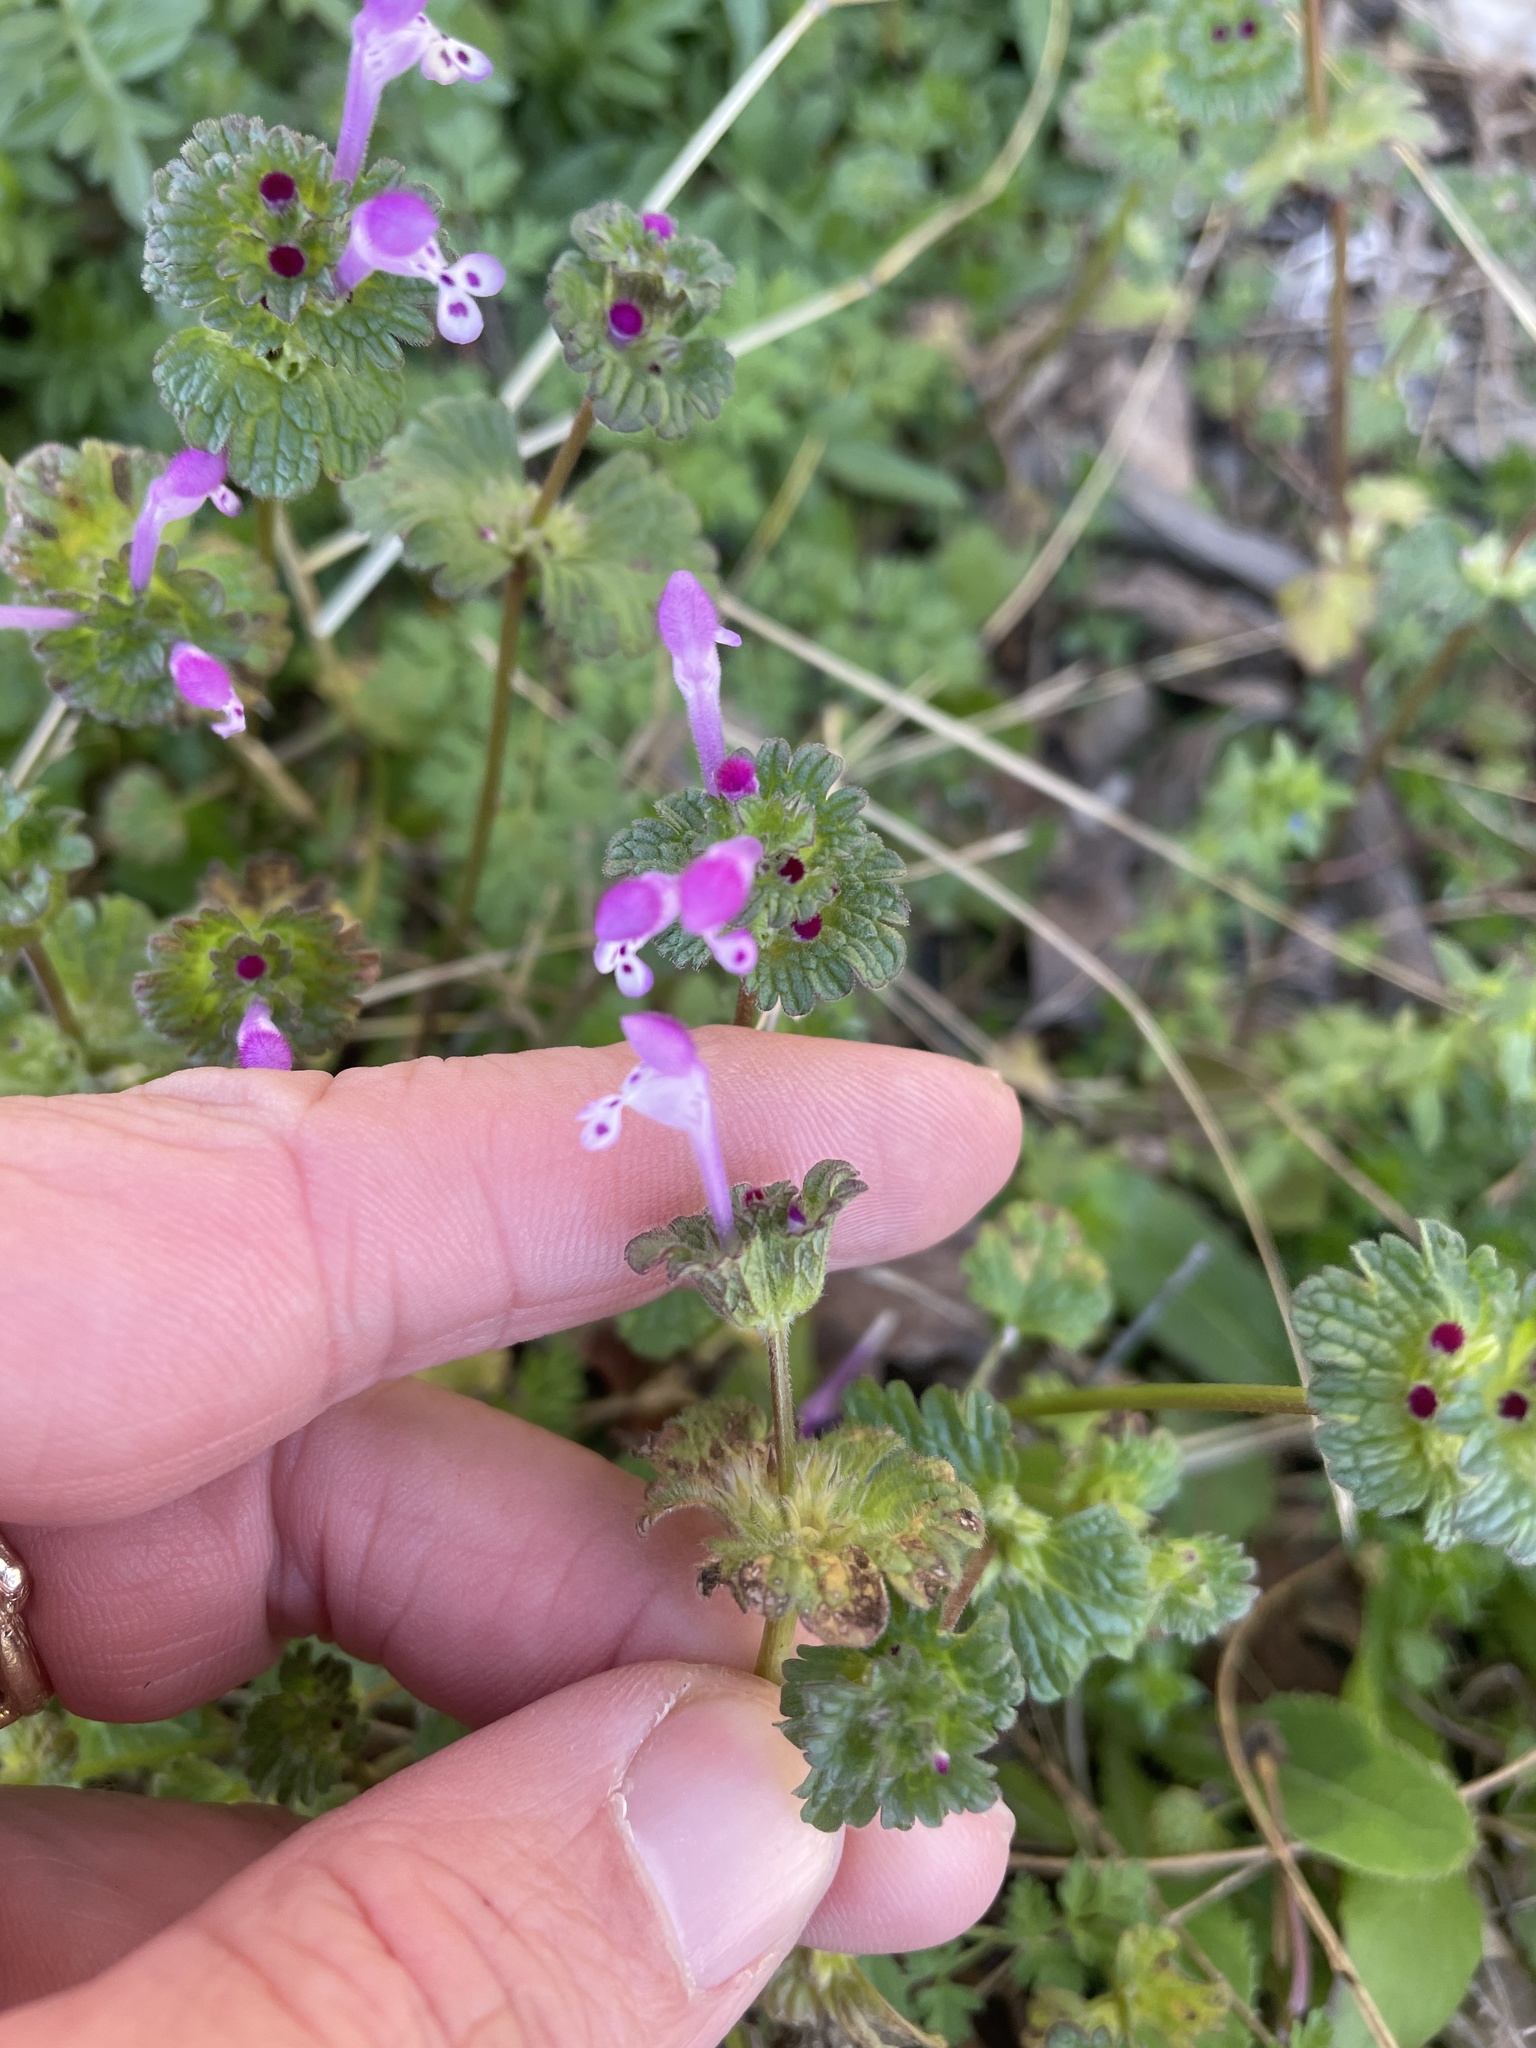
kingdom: Plantae
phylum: Tracheophyta
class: Magnoliopsida
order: Lamiales
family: Lamiaceae
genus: Lamium
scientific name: Lamium amplexicaule
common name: Henbit dead-nettle
